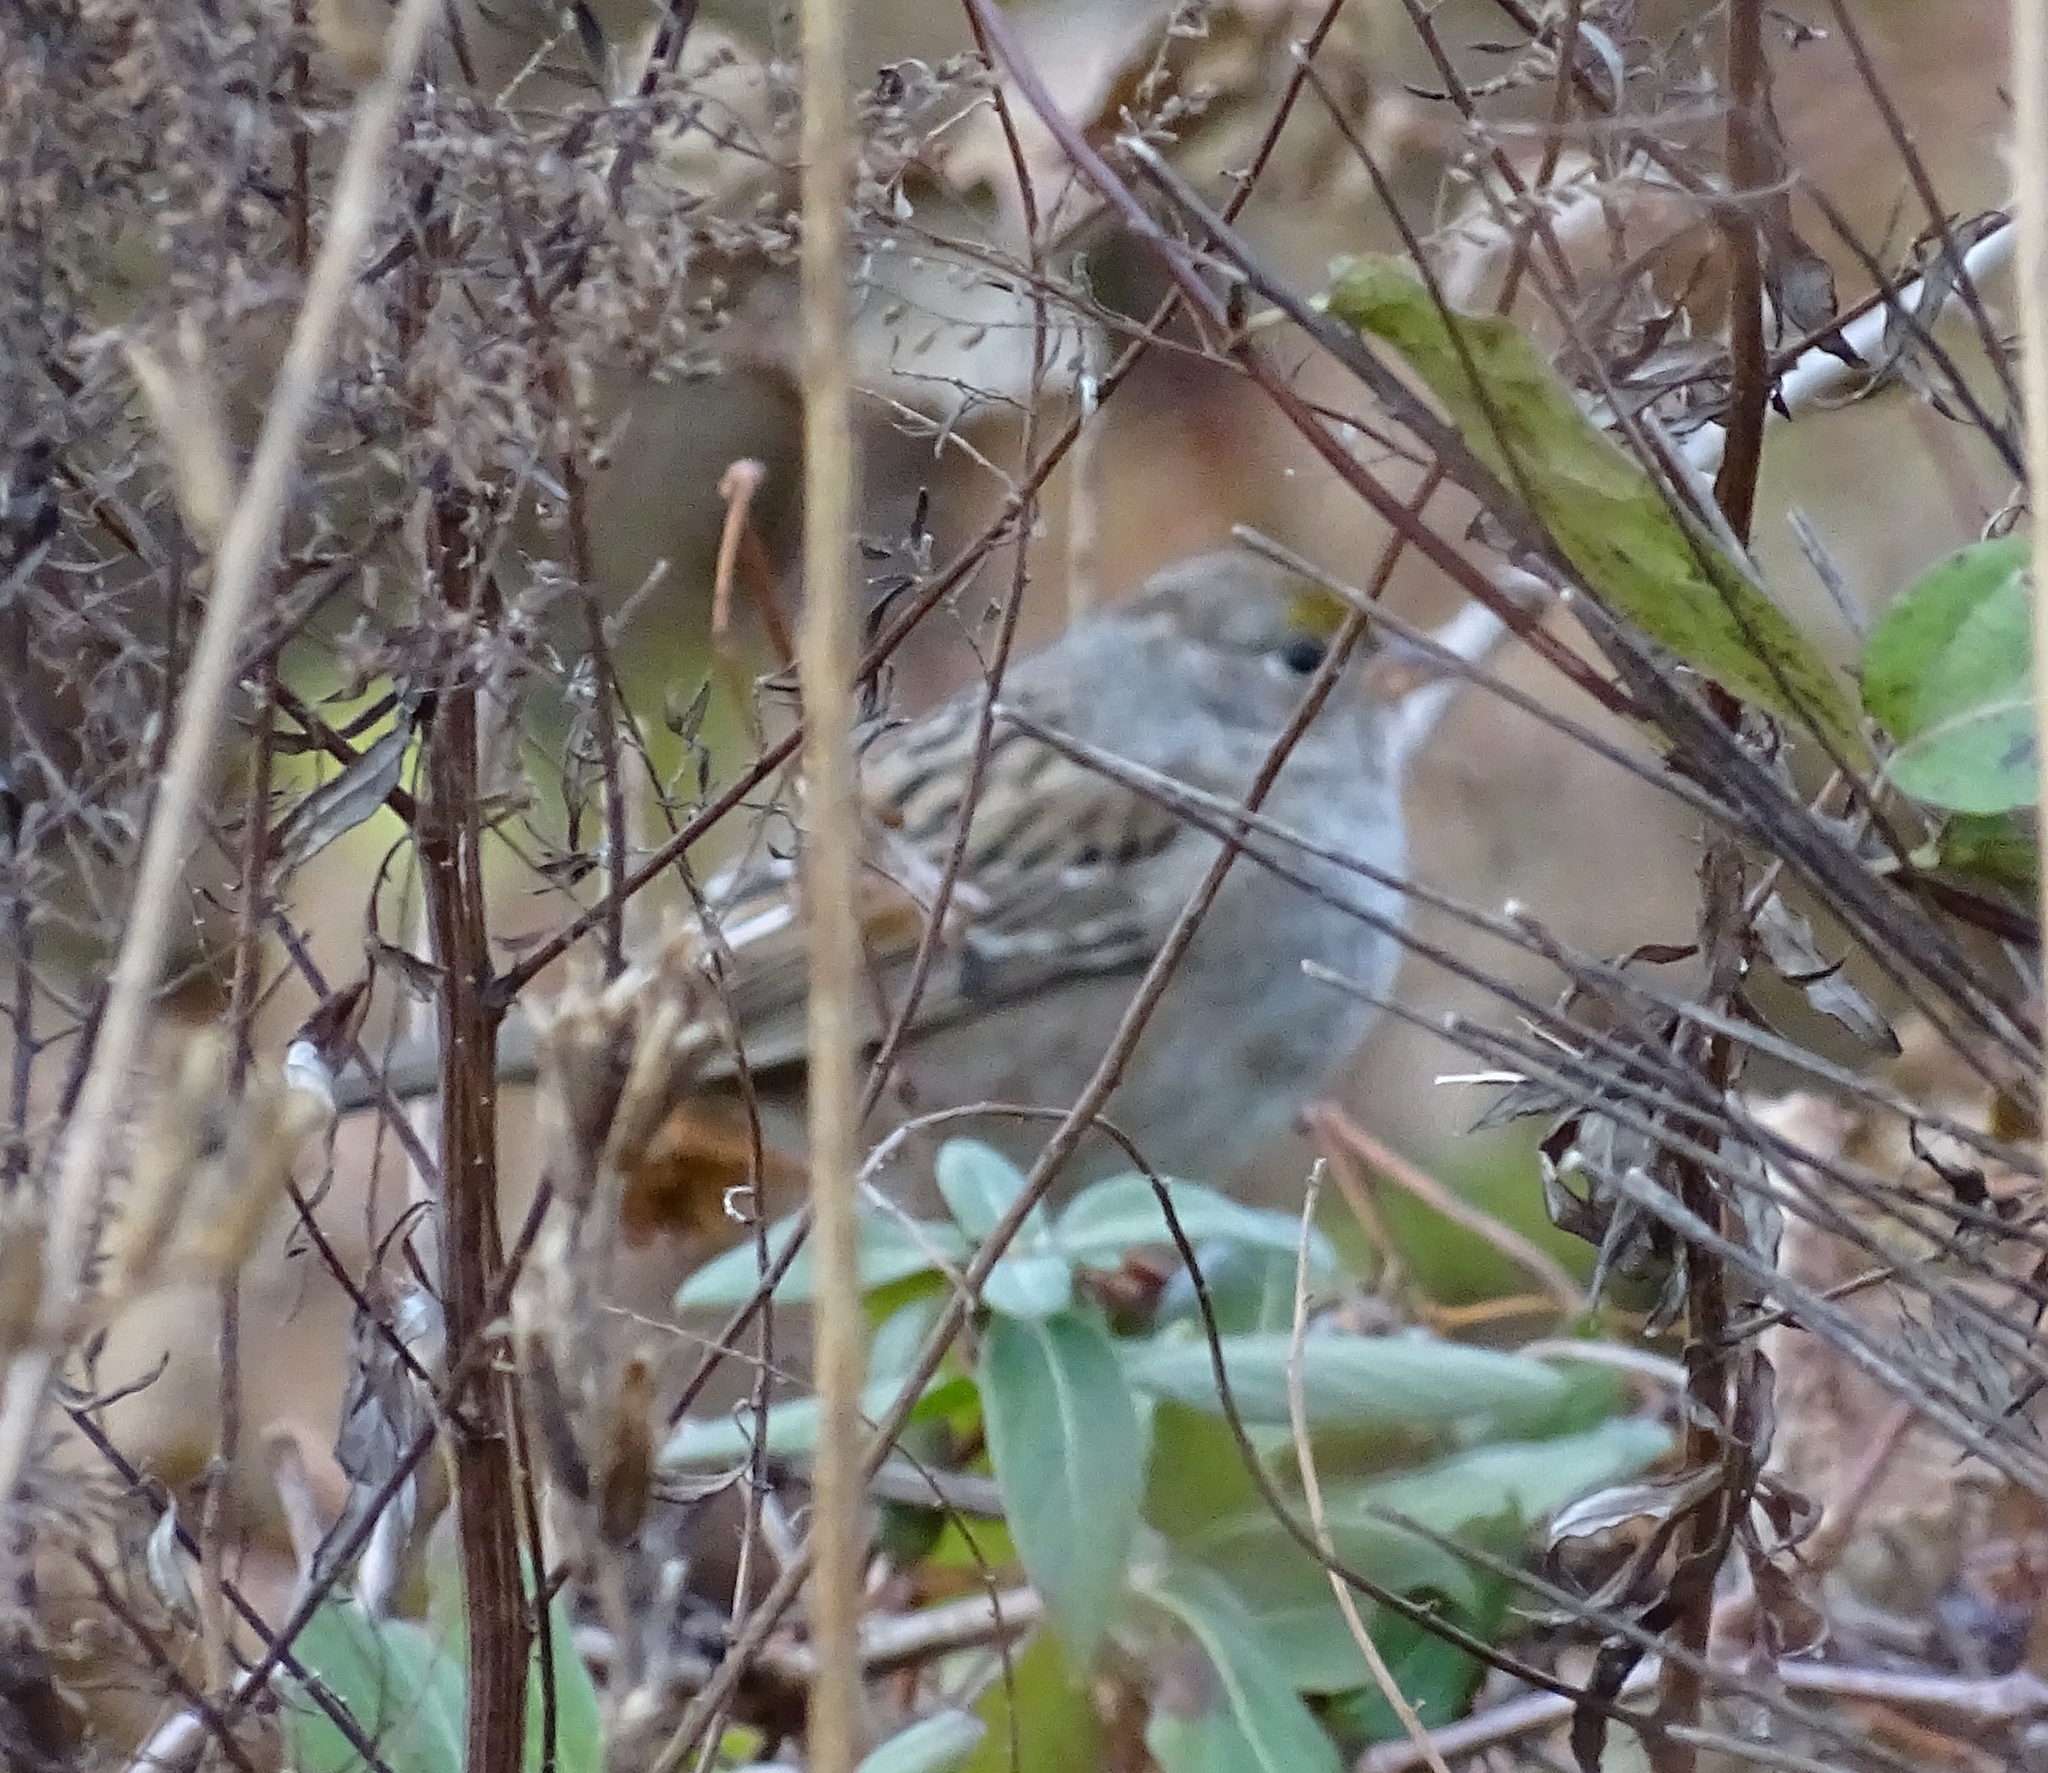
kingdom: Animalia
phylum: Chordata
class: Aves
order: Passeriformes
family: Passerellidae
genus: Zonotrichia
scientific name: Zonotrichia atricapilla
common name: Golden-crowned sparrow
